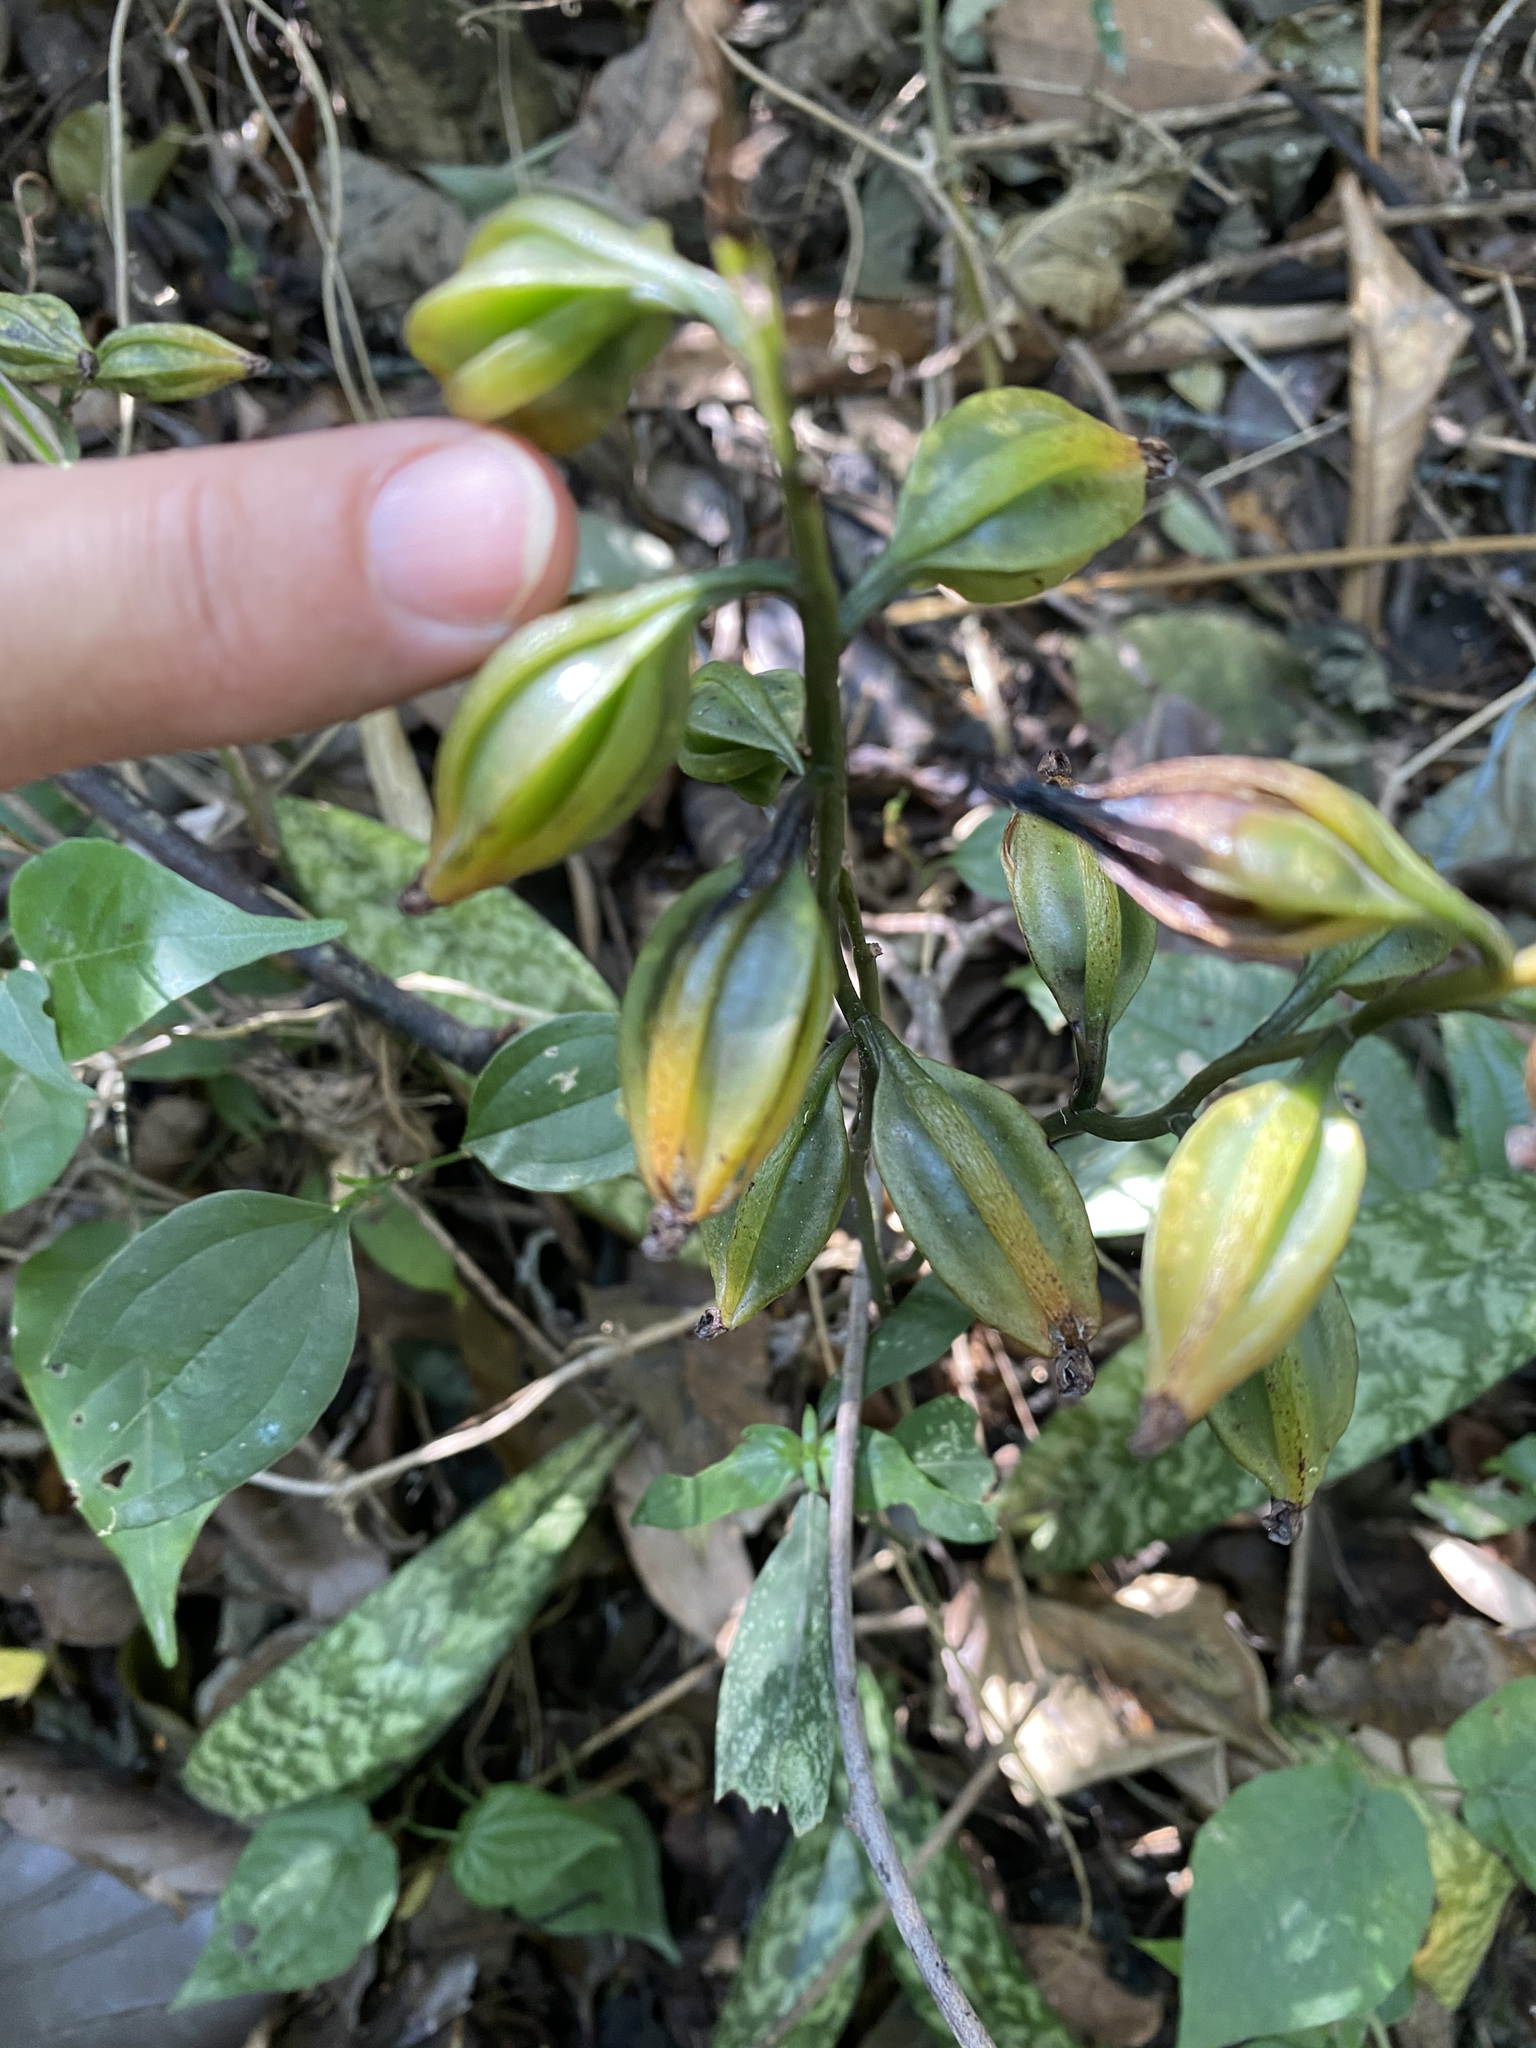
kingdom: Plantae
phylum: Tracheophyta
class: Liliopsida
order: Asparagales
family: Orchidaceae
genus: Eulophia
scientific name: Eulophia maculata
